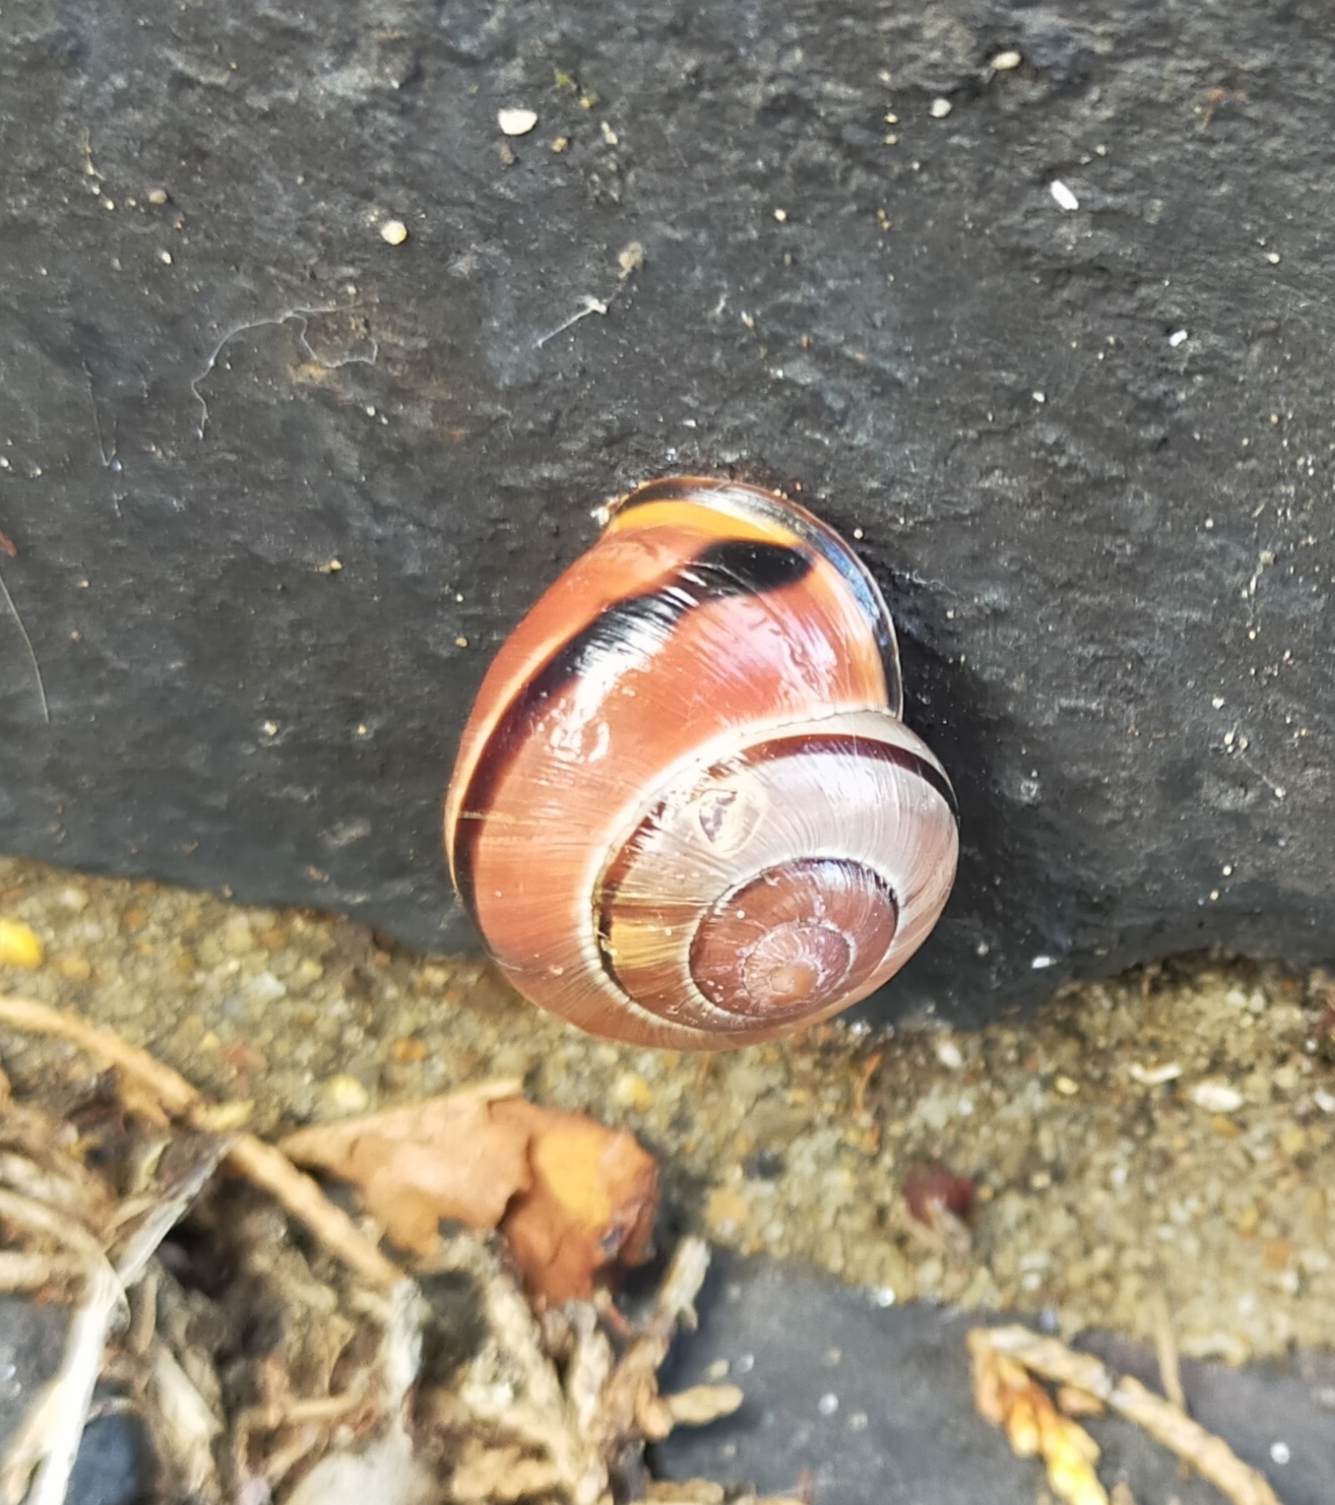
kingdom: Animalia
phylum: Mollusca
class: Gastropoda
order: Stylommatophora
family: Helicidae
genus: Cepaea
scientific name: Cepaea nemoralis
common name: Grovesnail
